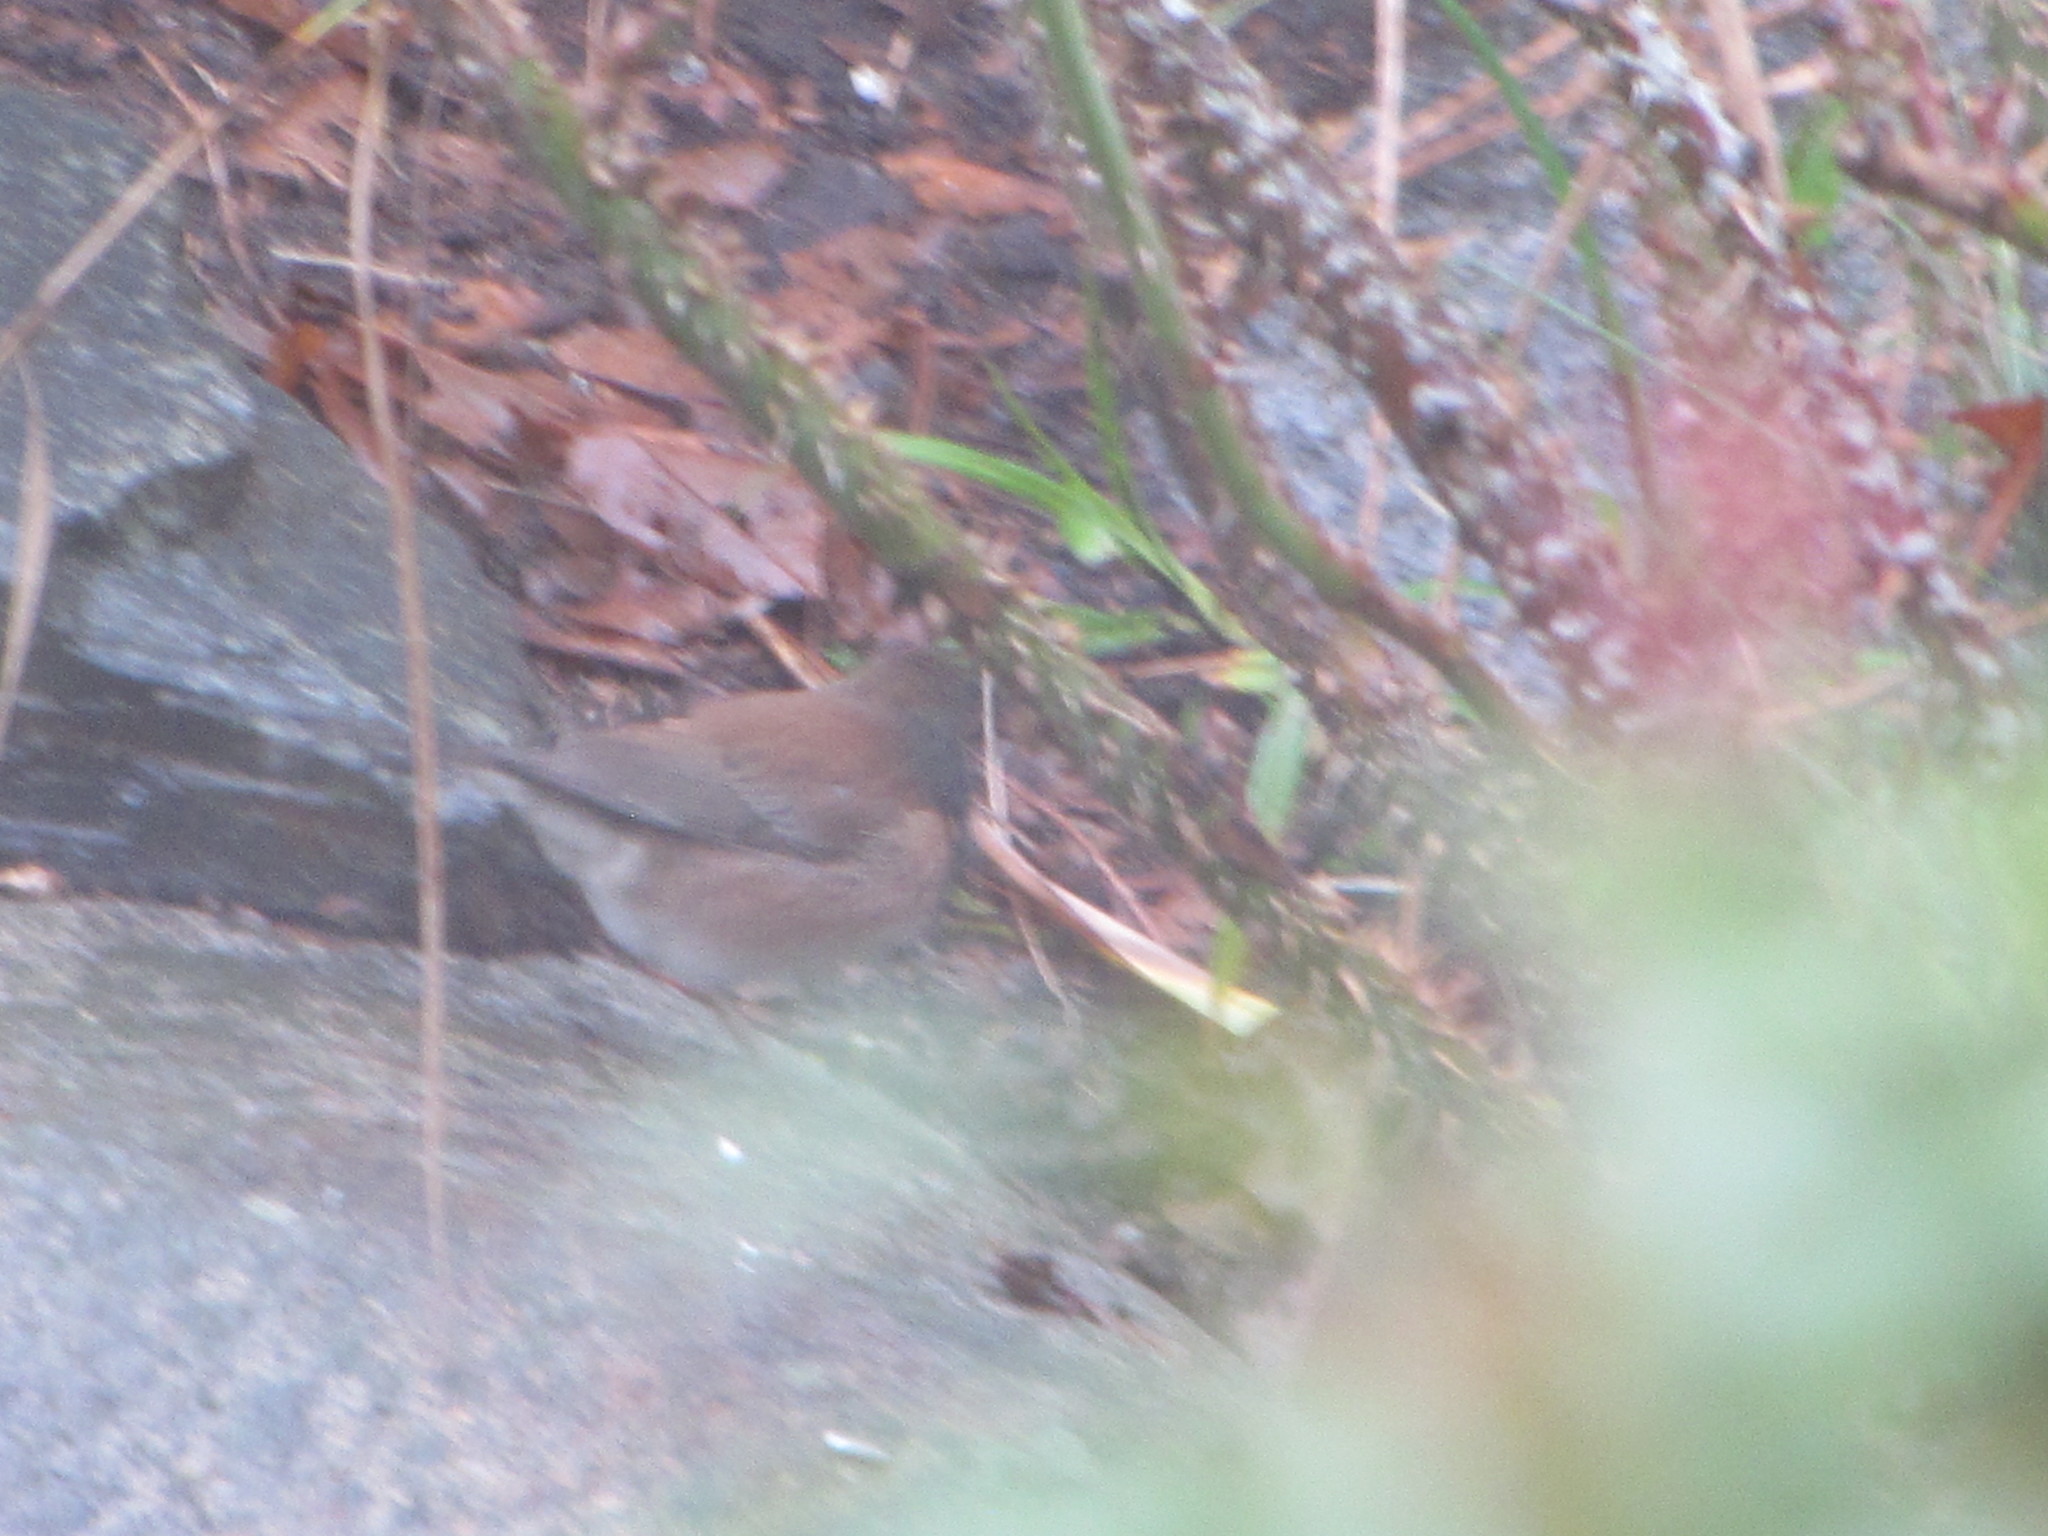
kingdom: Animalia
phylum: Chordata
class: Aves
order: Passeriformes
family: Passerellidae
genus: Junco
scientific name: Junco hyemalis
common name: Dark-eyed junco
